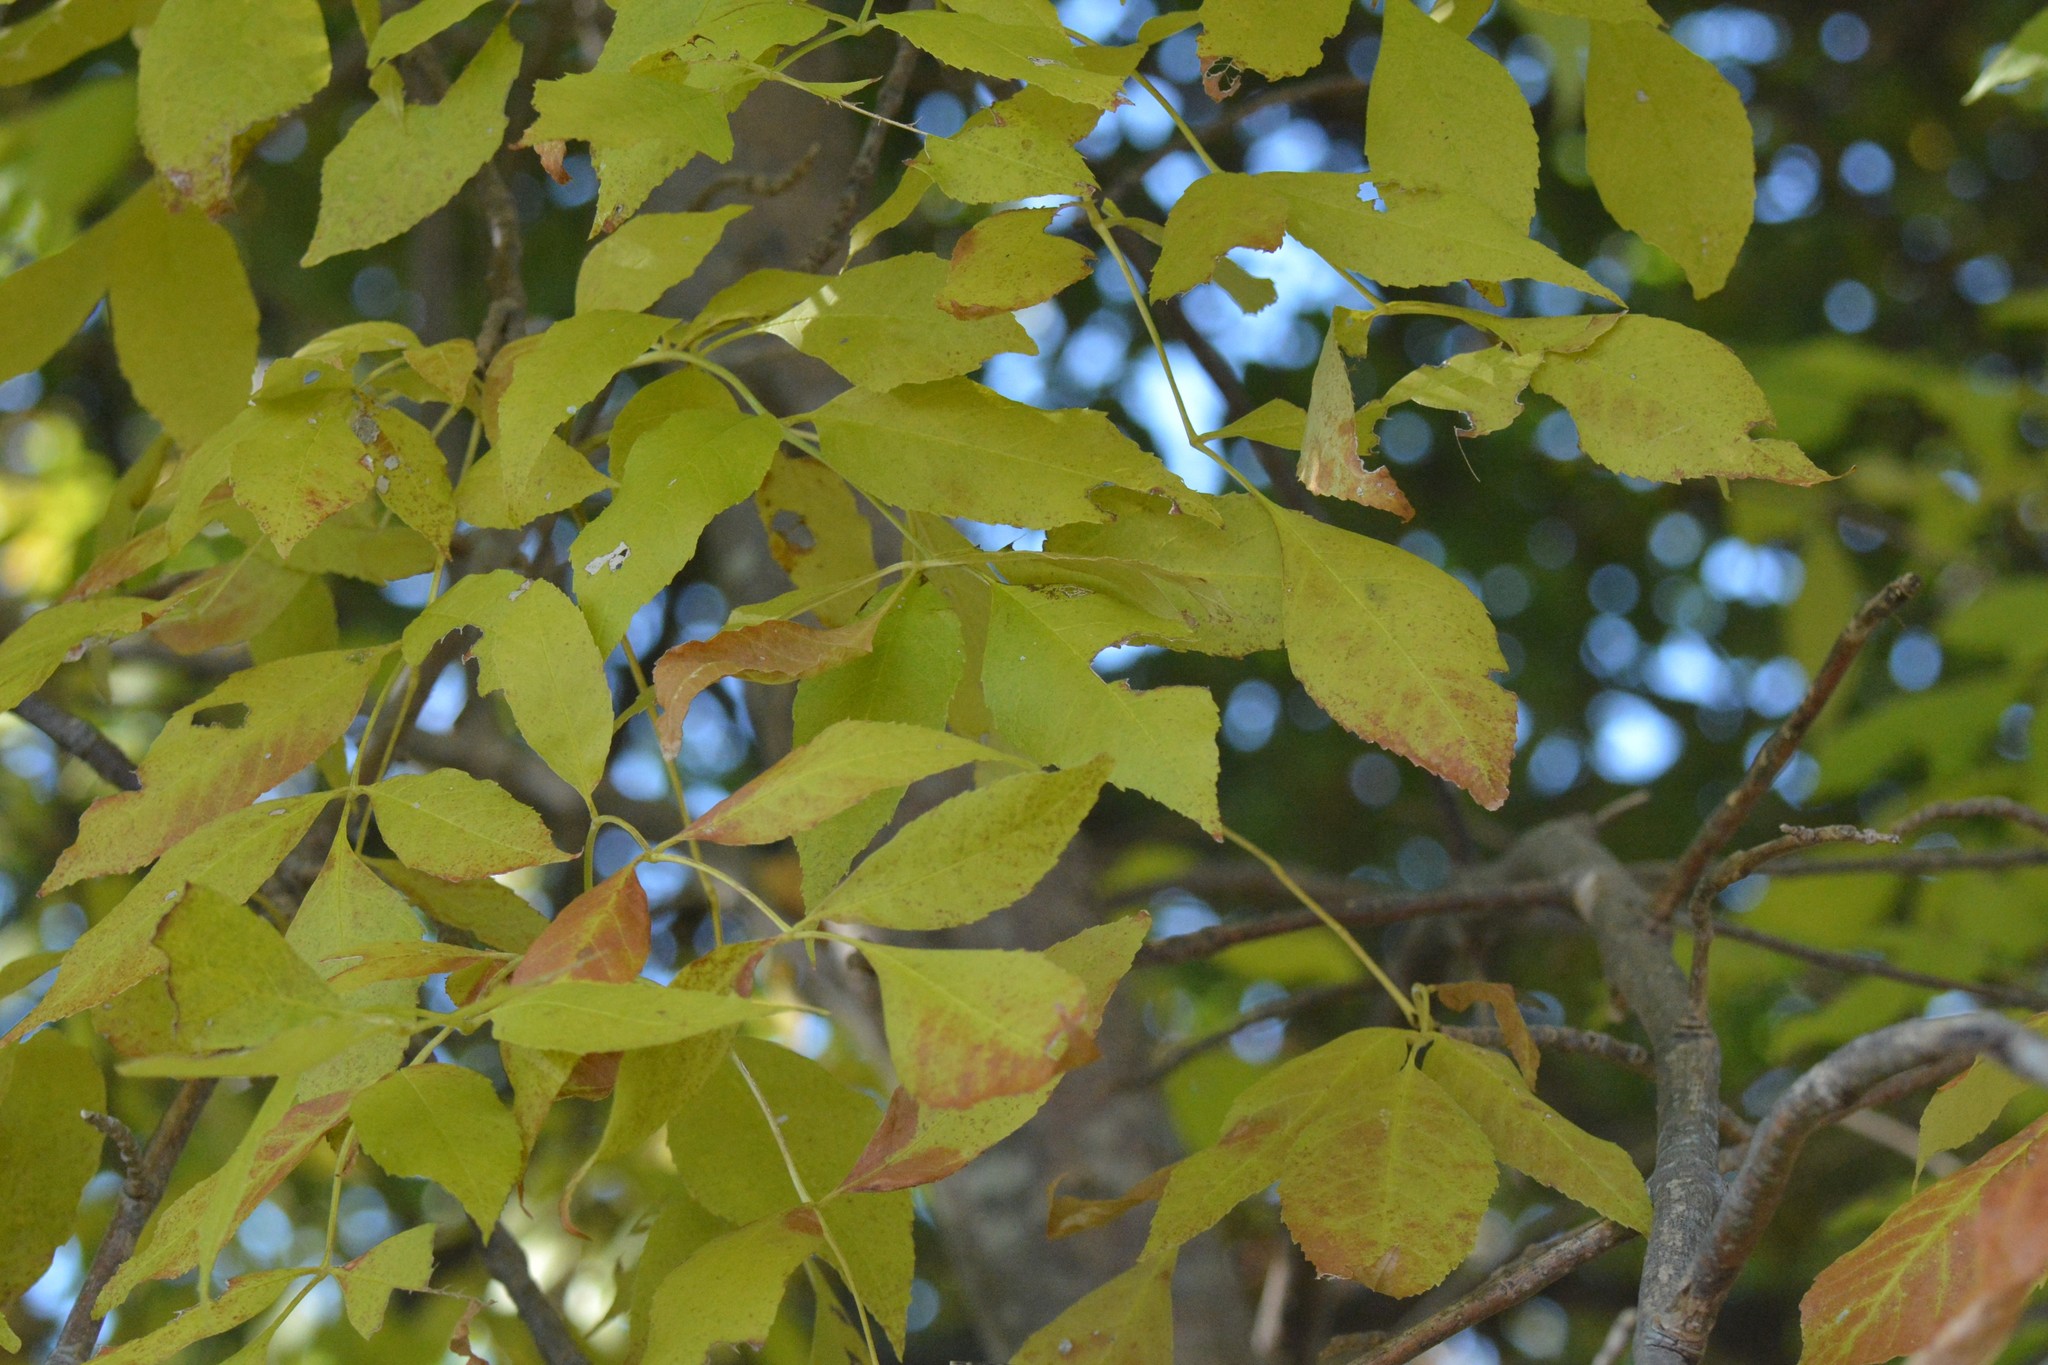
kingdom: Plantae
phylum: Tracheophyta
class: Magnoliopsida
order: Lamiales
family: Oleaceae
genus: Fraxinus
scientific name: Fraxinus pennsylvanica
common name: Green ash
